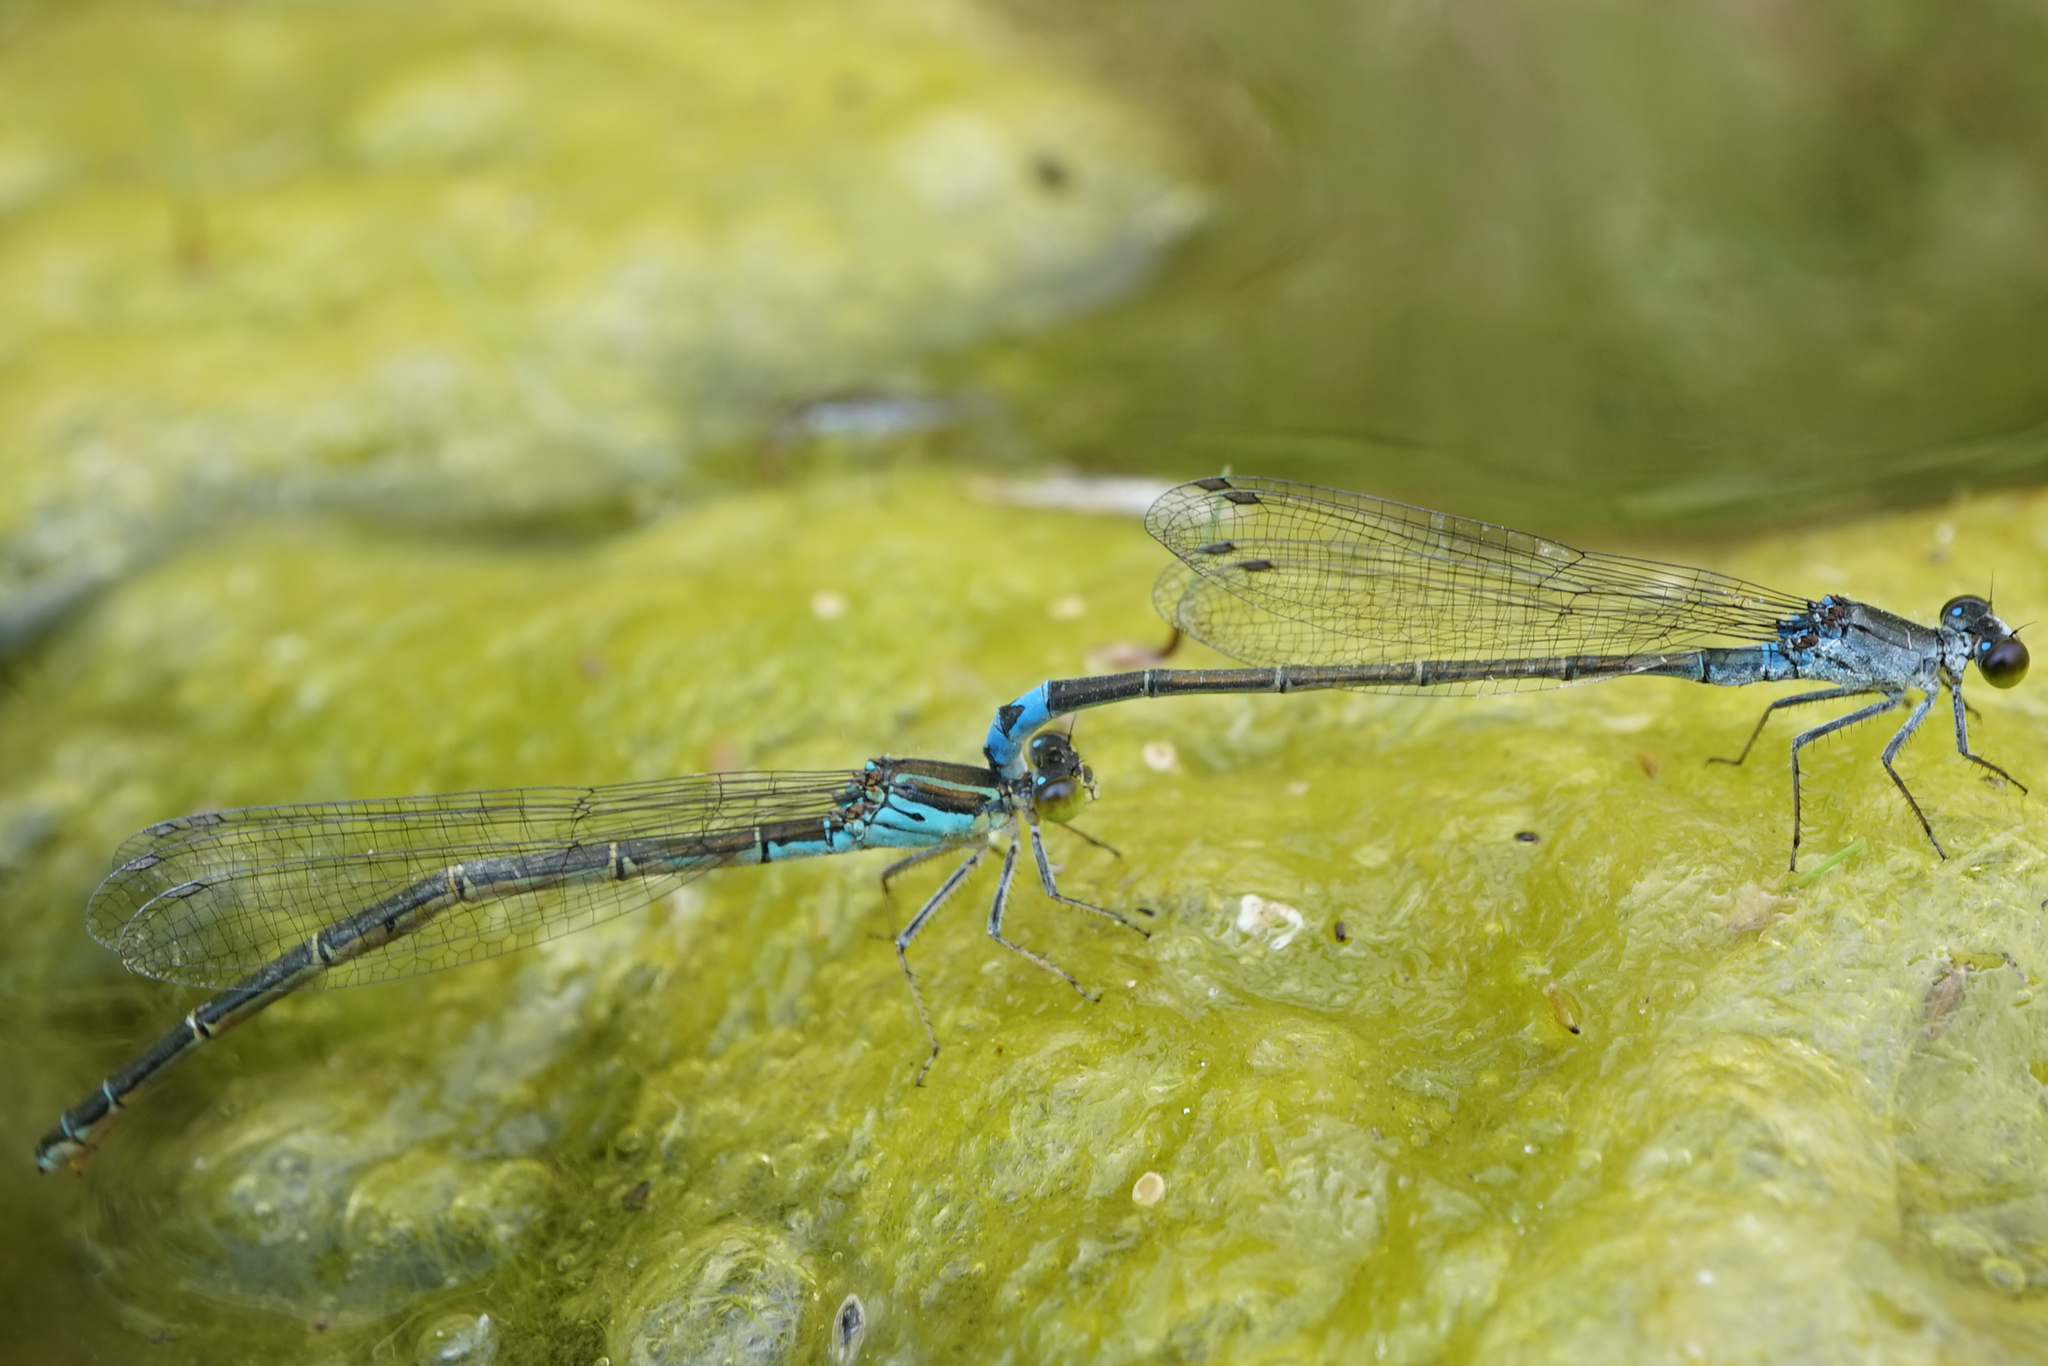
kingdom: Animalia
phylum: Arthropoda
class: Insecta
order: Odonata
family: Coenagrionidae
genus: Paracercion
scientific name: Paracercion calamorum
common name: Dusky lilysquatter
